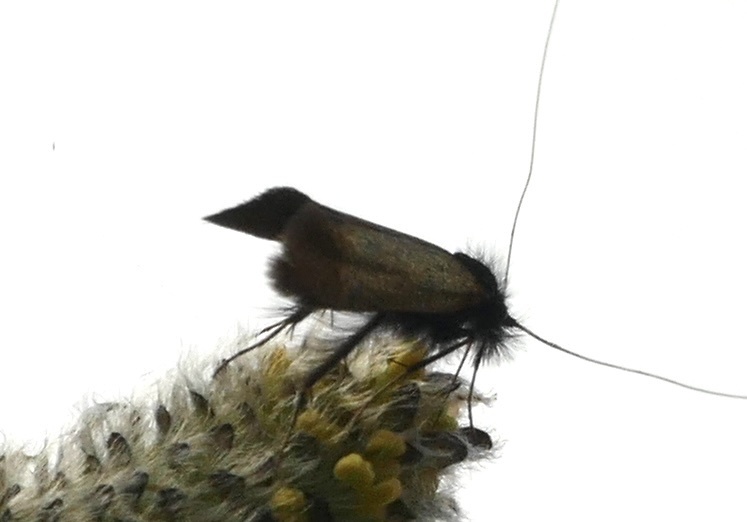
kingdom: Animalia
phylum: Arthropoda
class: Insecta
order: Lepidoptera
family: Adelidae
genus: Adela
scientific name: Adela cuprella
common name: Early long-horn
